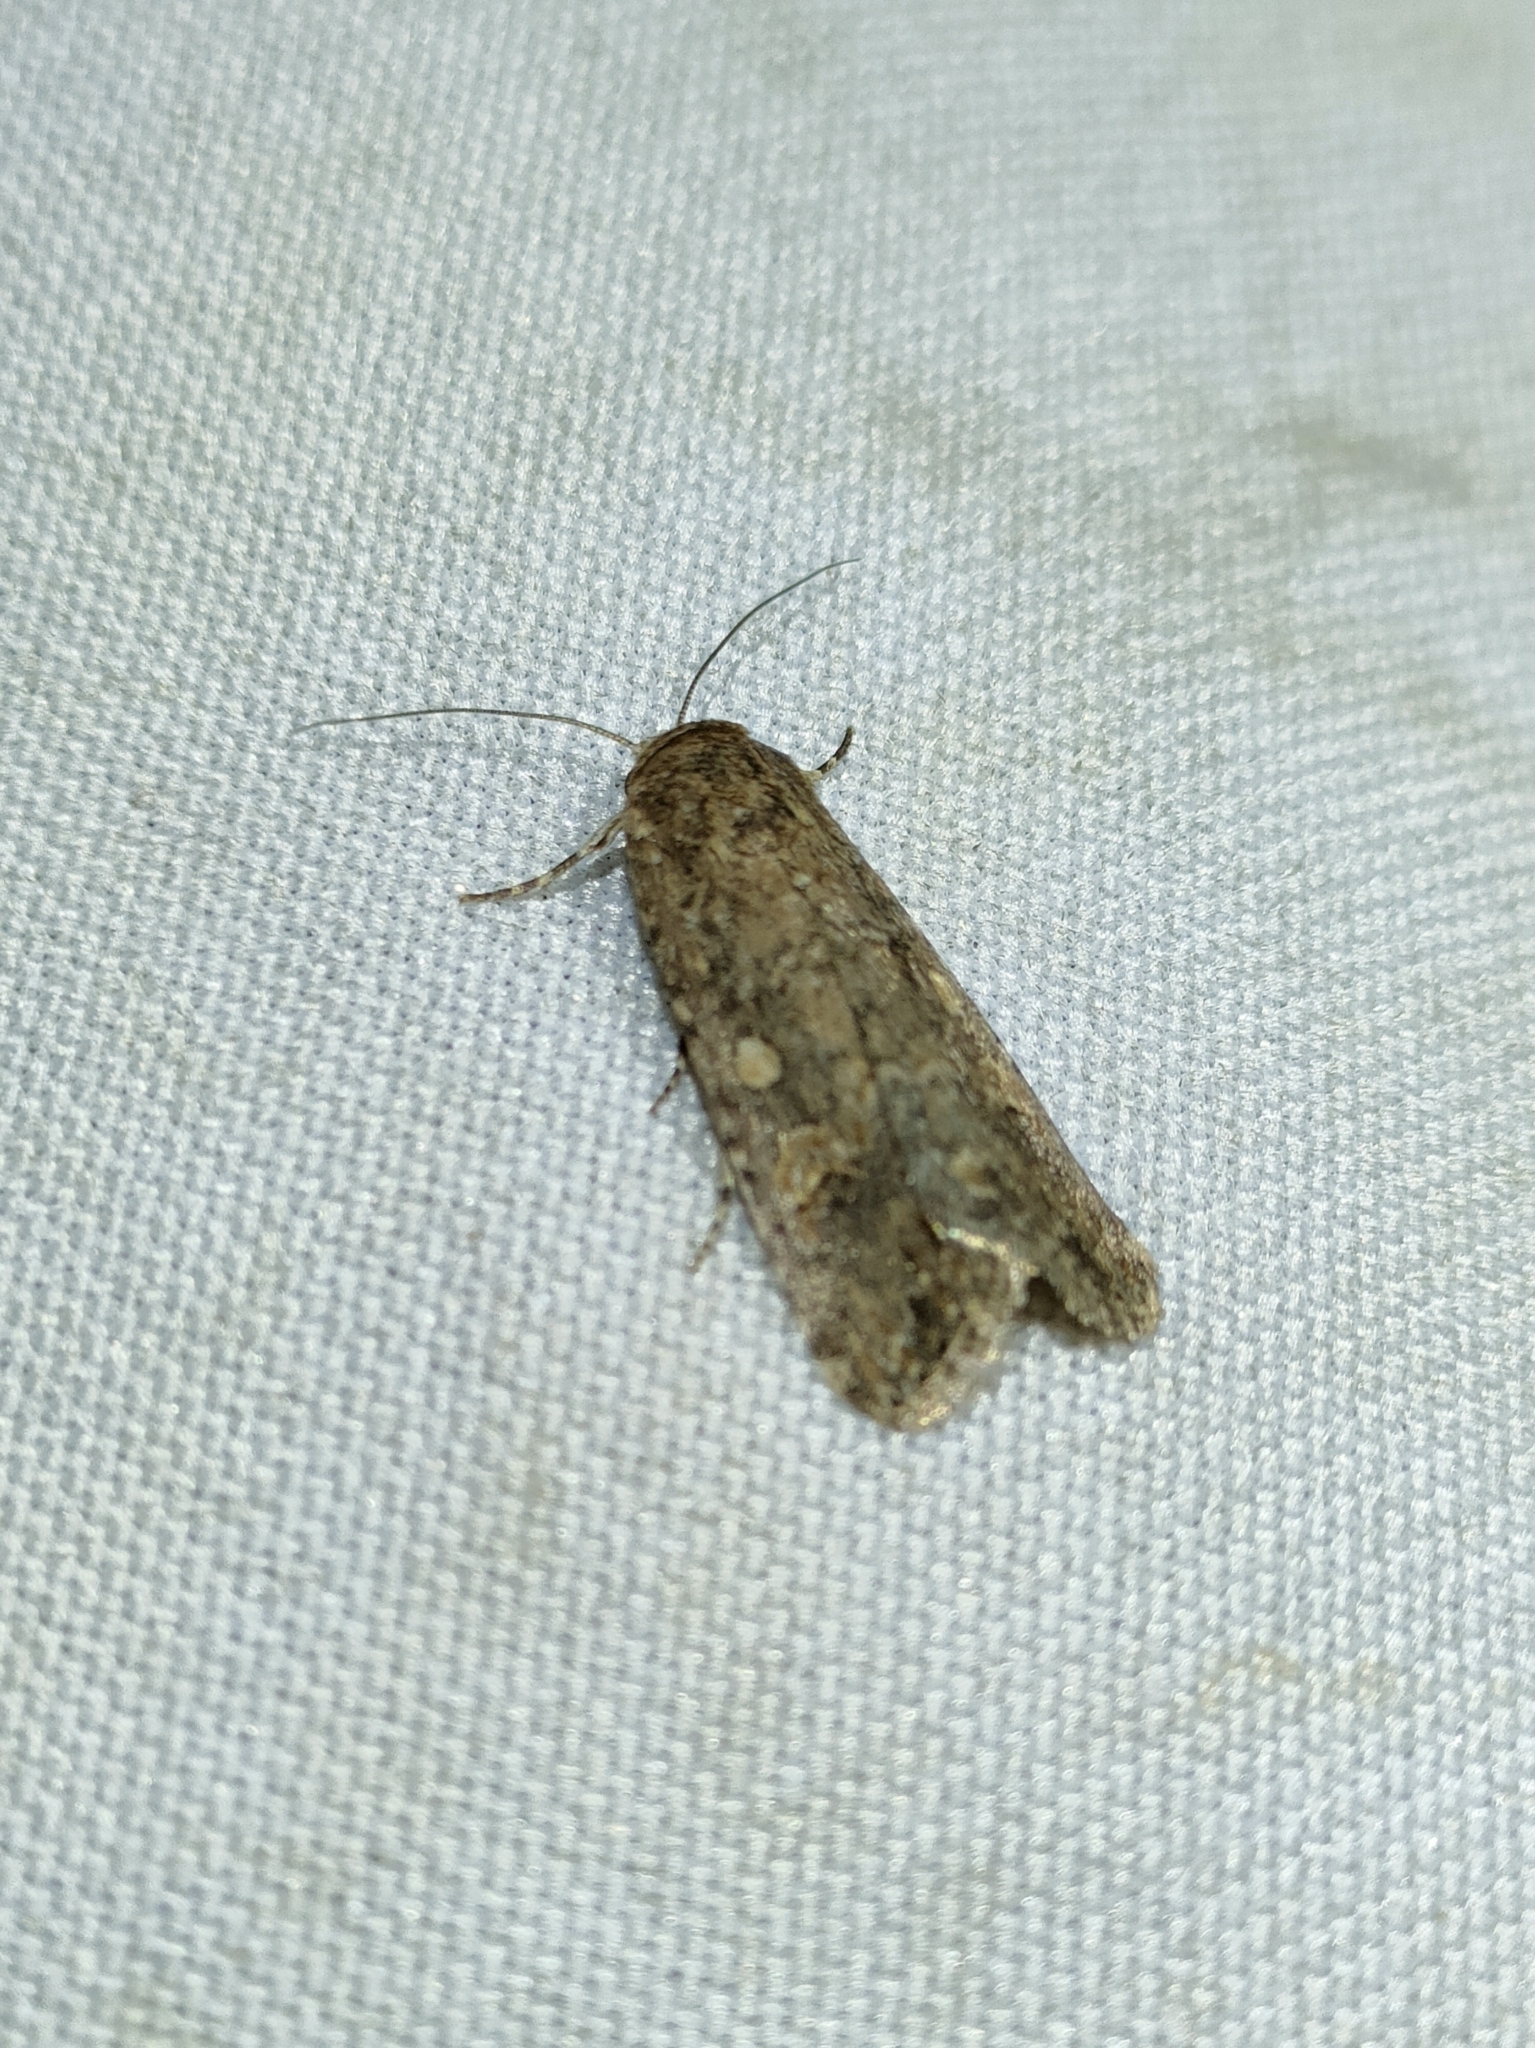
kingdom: Animalia
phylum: Arthropoda
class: Insecta
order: Lepidoptera
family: Noctuidae
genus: Spodoptera
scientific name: Spodoptera exigua
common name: Beet armyworm
